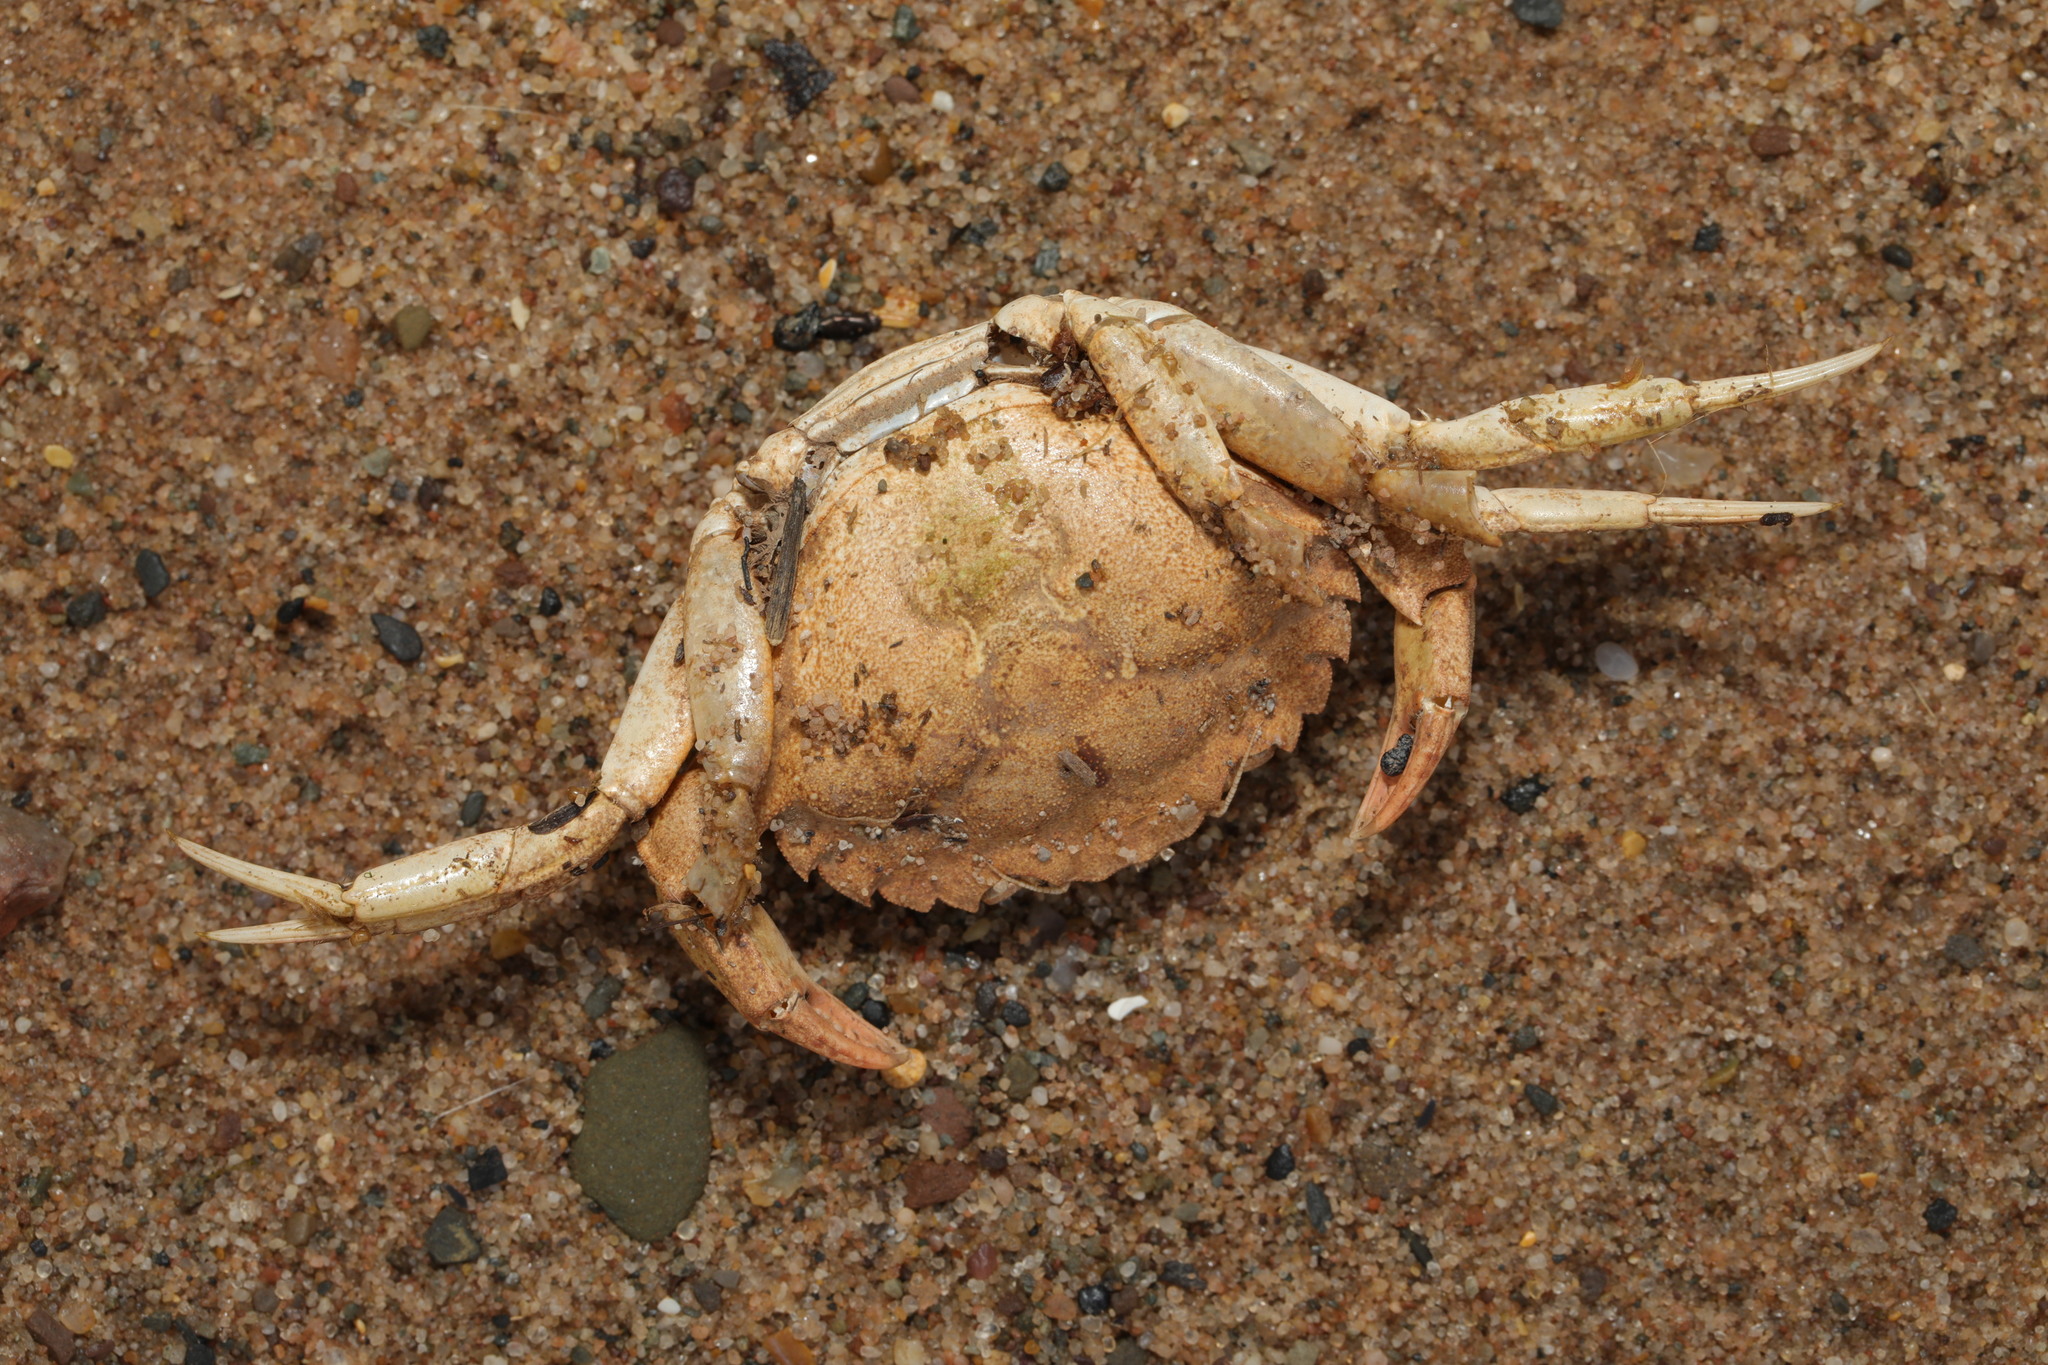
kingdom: Animalia
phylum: Arthropoda
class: Malacostraca
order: Decapoda
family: Carcinidae
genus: Carcinus
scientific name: Carcinus maenas
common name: European green crab
